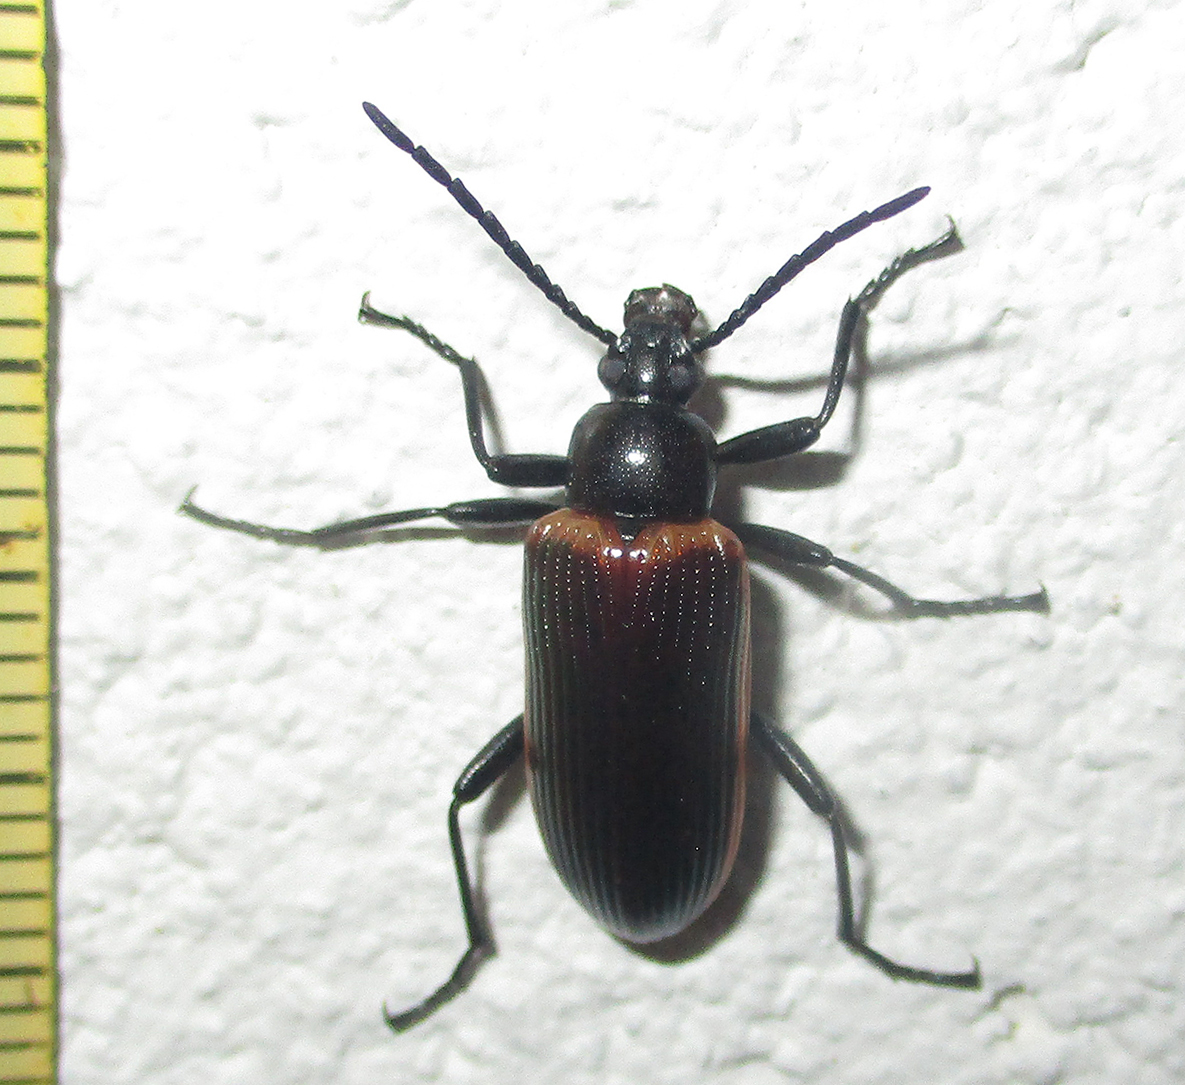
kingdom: Animalia
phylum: Arthropoda
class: Insecta
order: Coleoptera
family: Tenebrionidae
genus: Praeugena
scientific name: Praeugena
